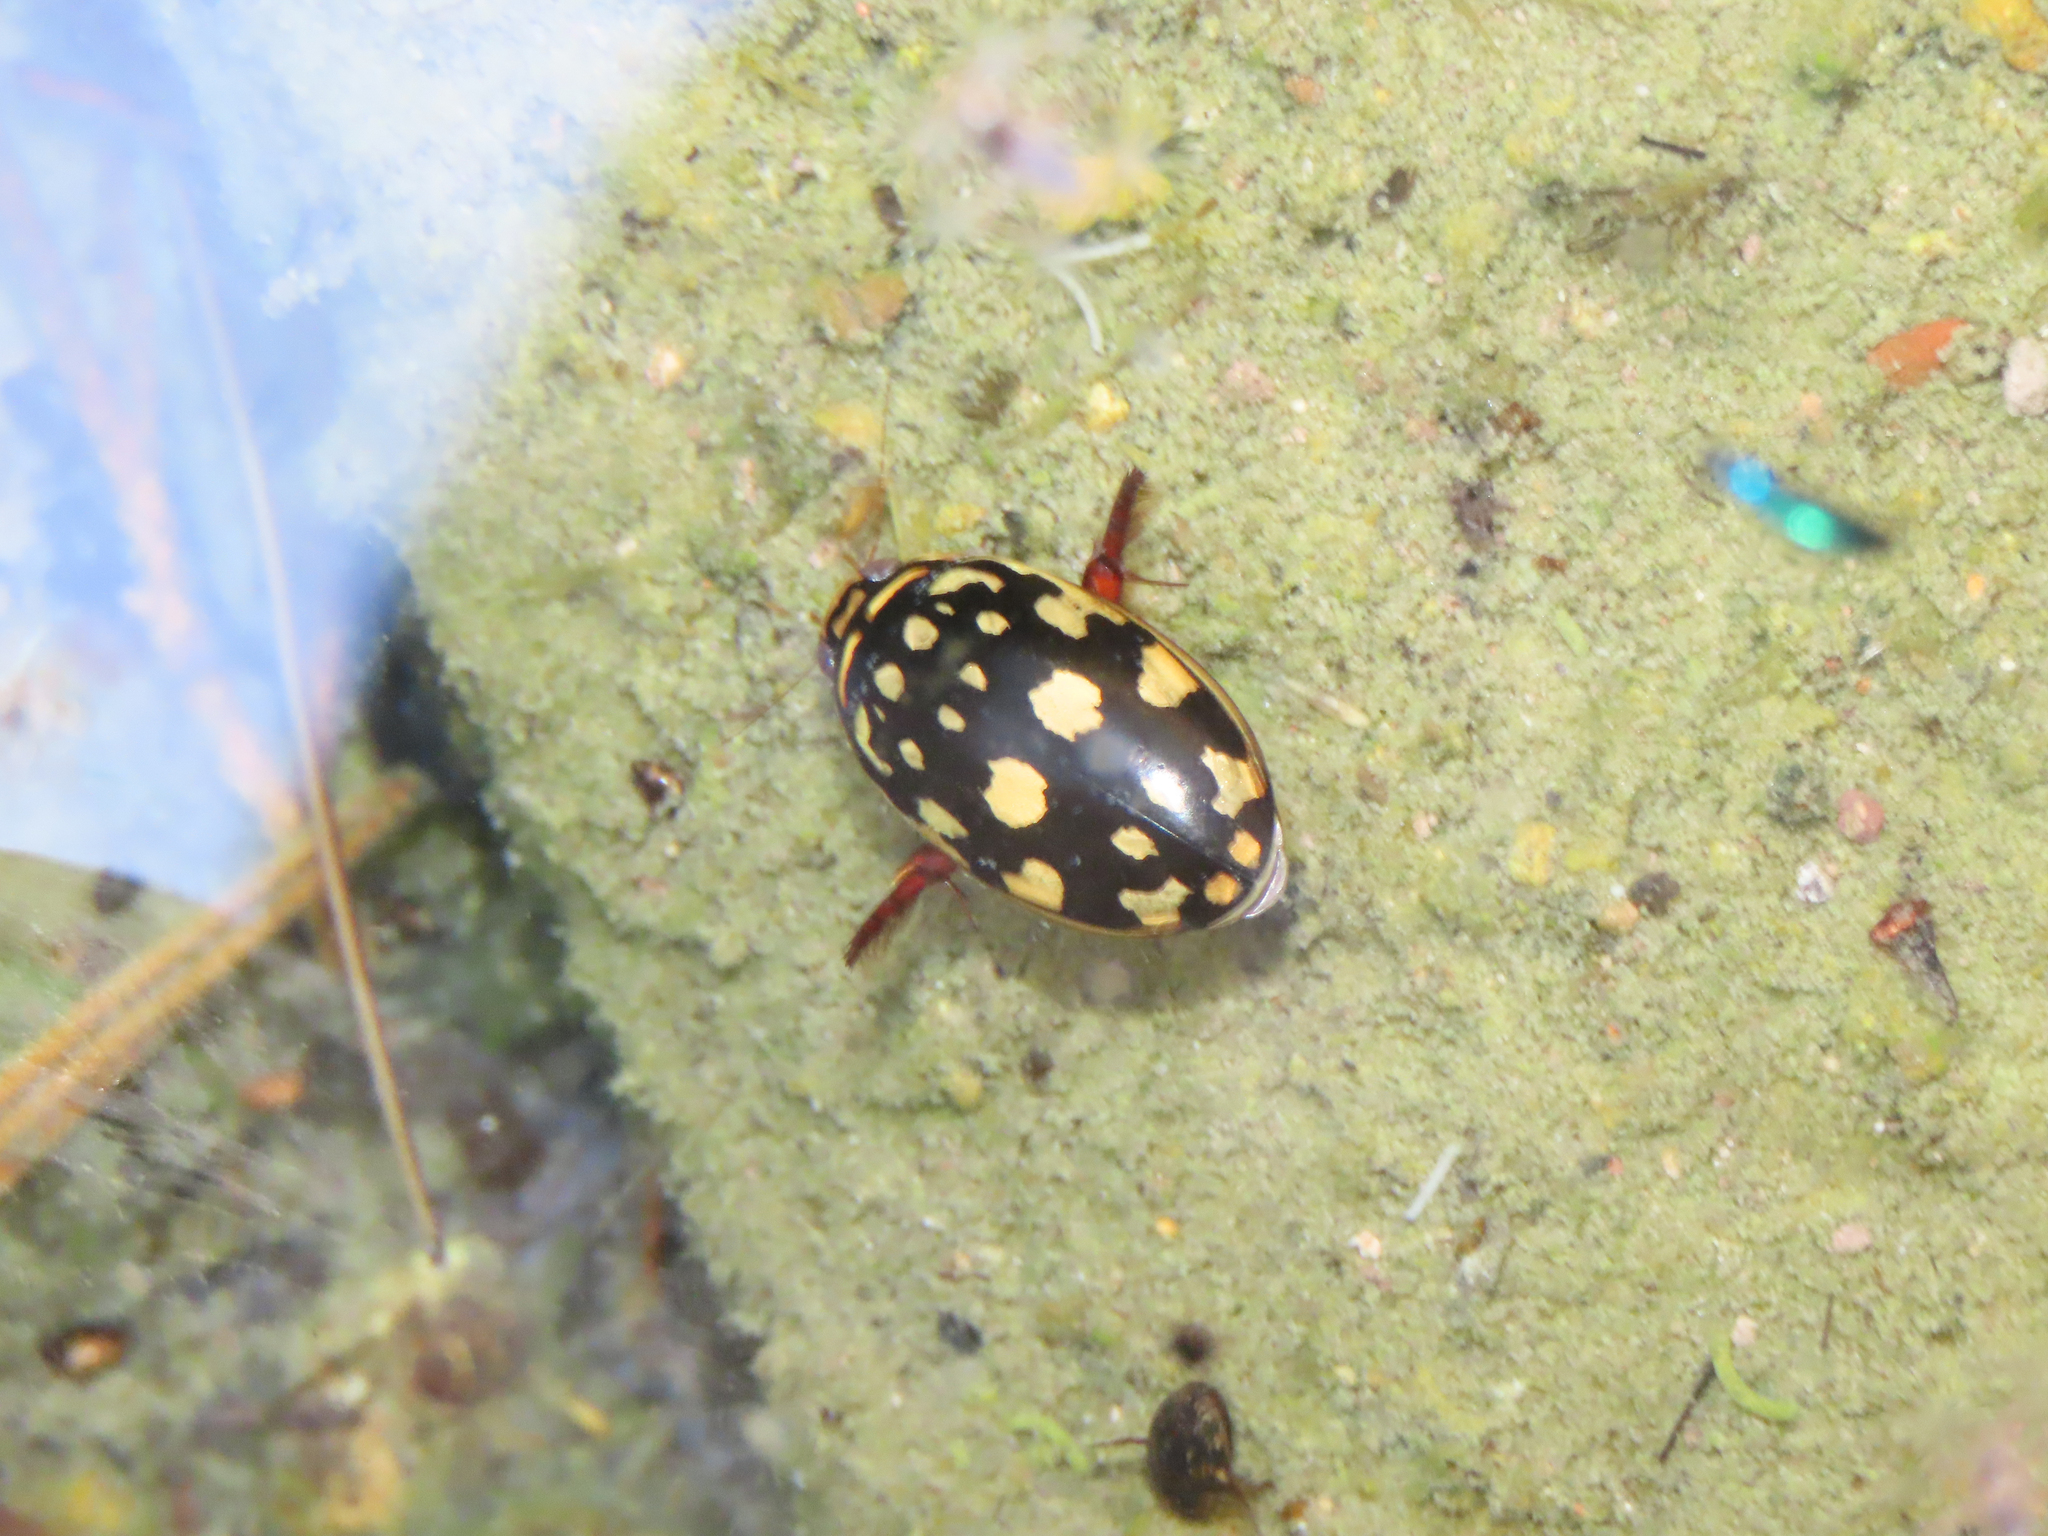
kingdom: Animalia
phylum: Arthropoda
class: Insecta
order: Coleoptera
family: Dytiscidae
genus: Thermonectus
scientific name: Thermonectus marmoratus
